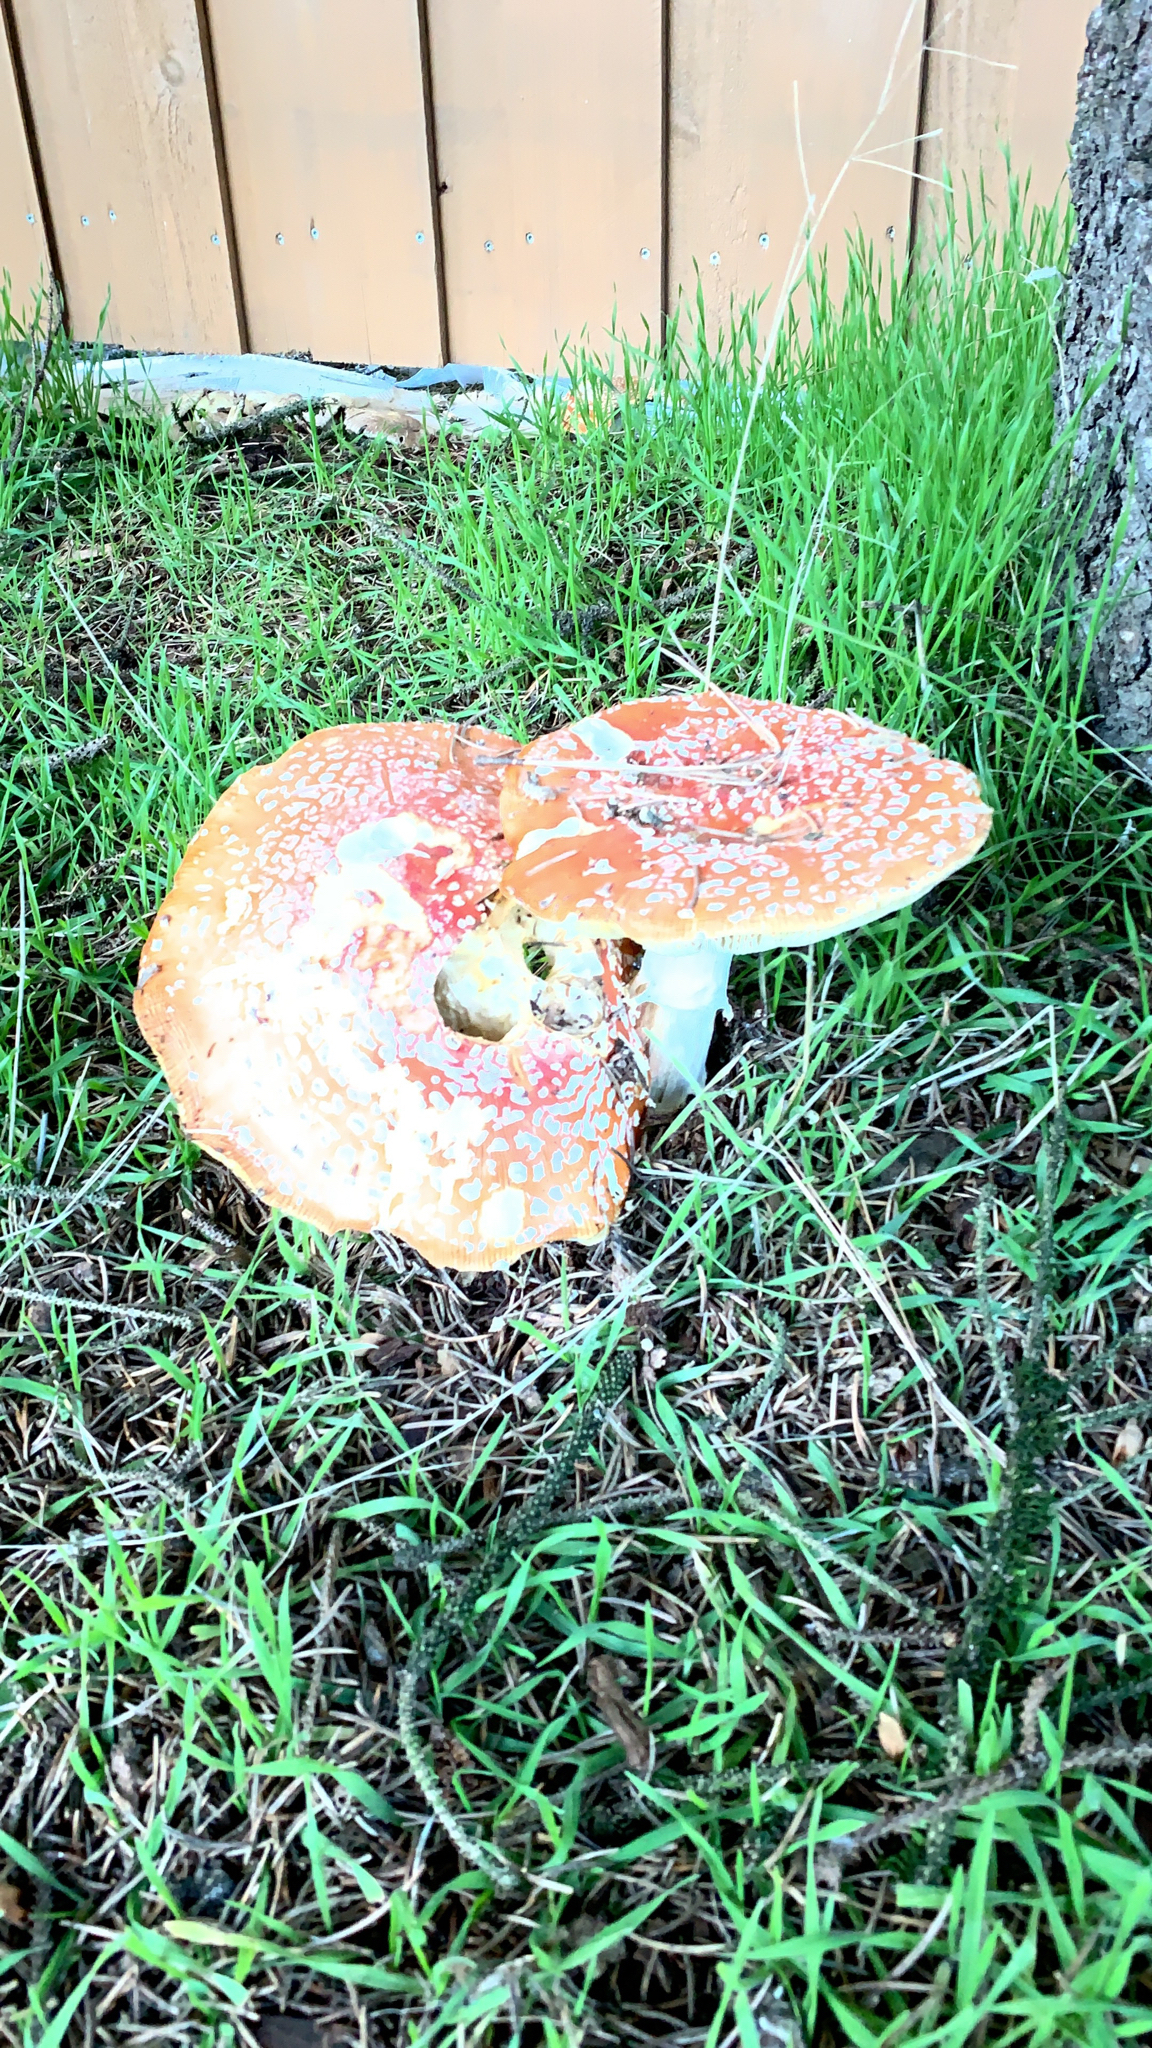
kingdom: Fungi
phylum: Basidiomycota
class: Agaricomycetes
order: Agaricales
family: Amanitaceae
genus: Amanita
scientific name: Amanita muscaria
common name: Fly agaric
